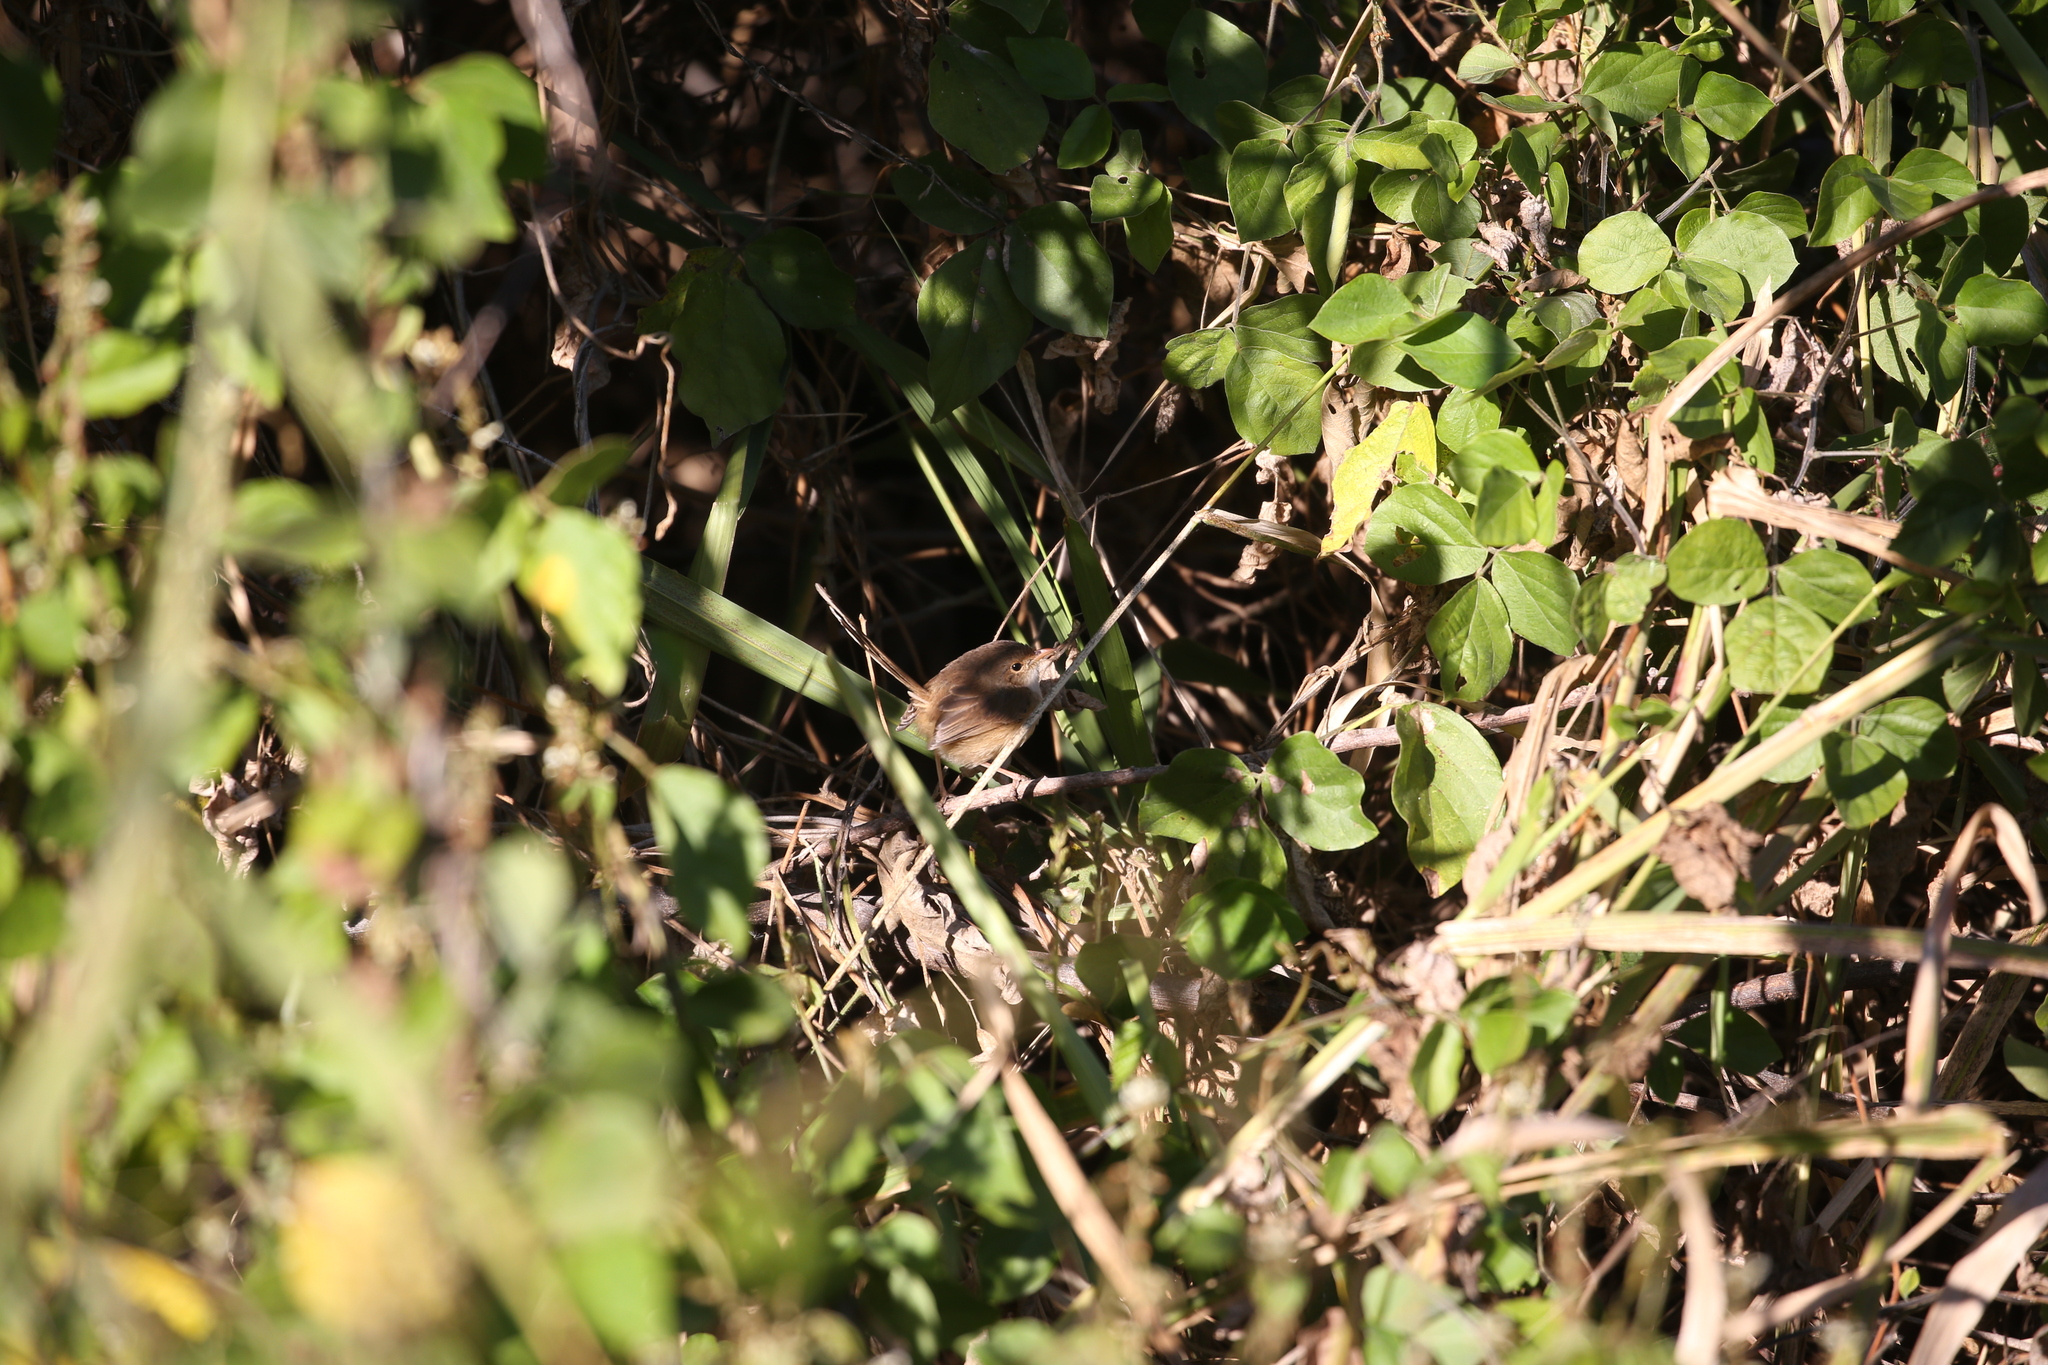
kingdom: Animalia
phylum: Chordata
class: Aves
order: Passeriformes
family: Maluridae
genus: Malurus
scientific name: Malurus melanocephalus
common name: Red-backed fairywren
